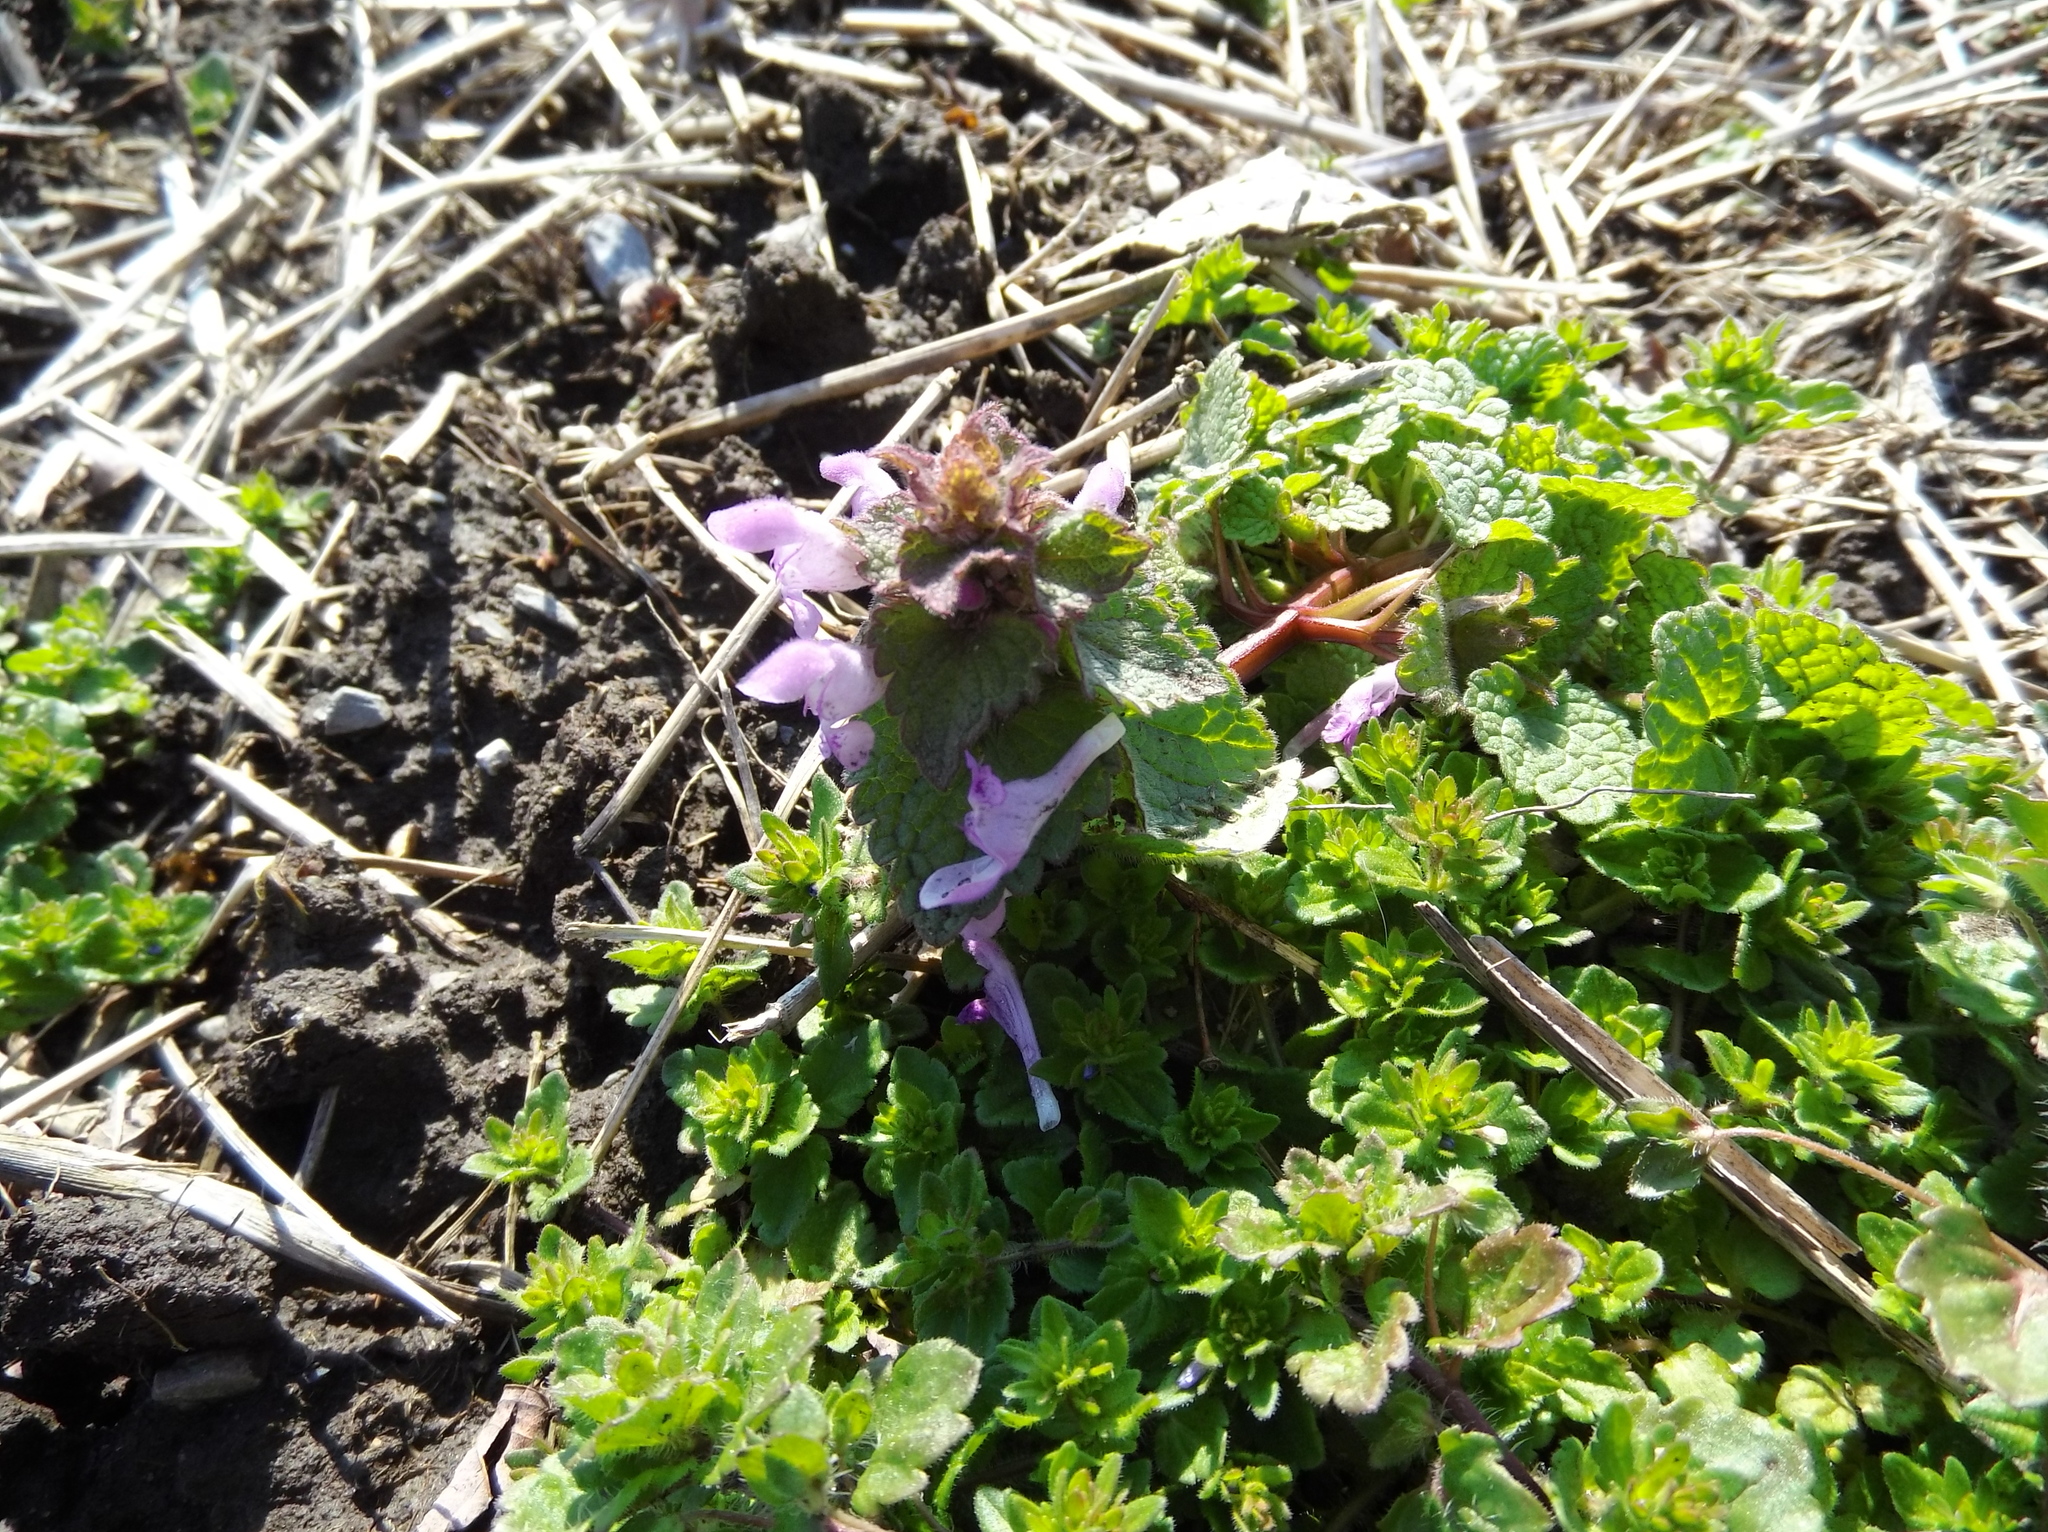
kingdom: Plantae
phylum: Tracheophyta
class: Magnoliopsida
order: Lamiales
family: Lamiaceae
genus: Lamium
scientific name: Lamium purpureum
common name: Red dead-nettle
